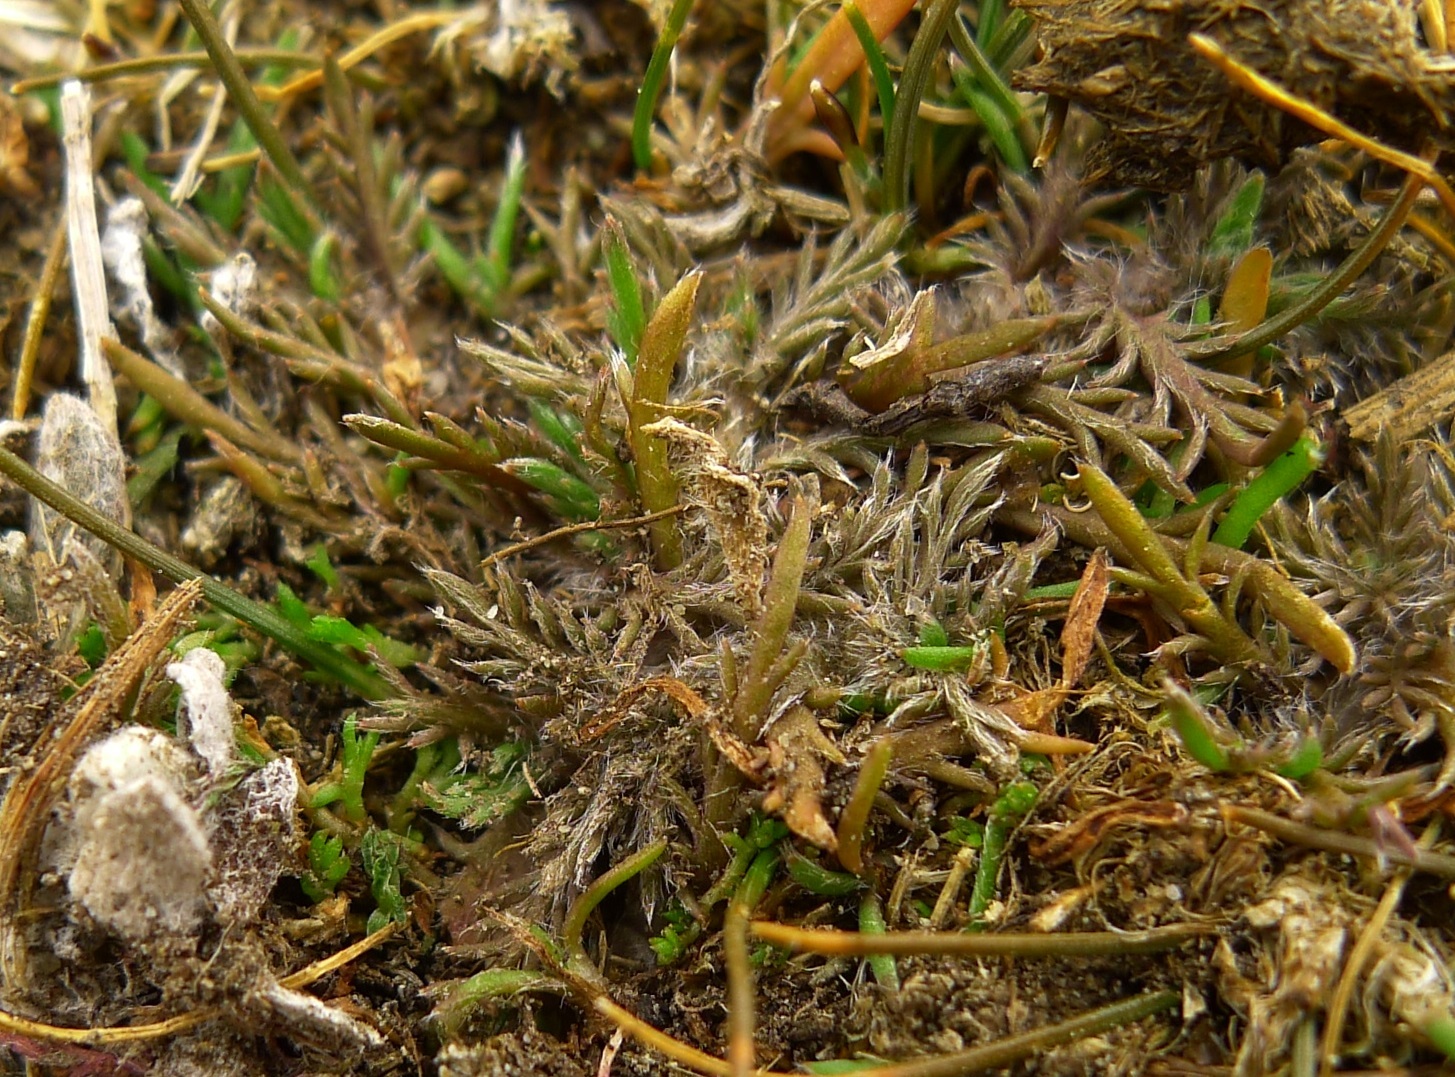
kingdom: Plantae
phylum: Tracheophyta
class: Magnoliopsida
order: Asterales
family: Asteraceae
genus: Leptinella
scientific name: Leptinella maniototo
